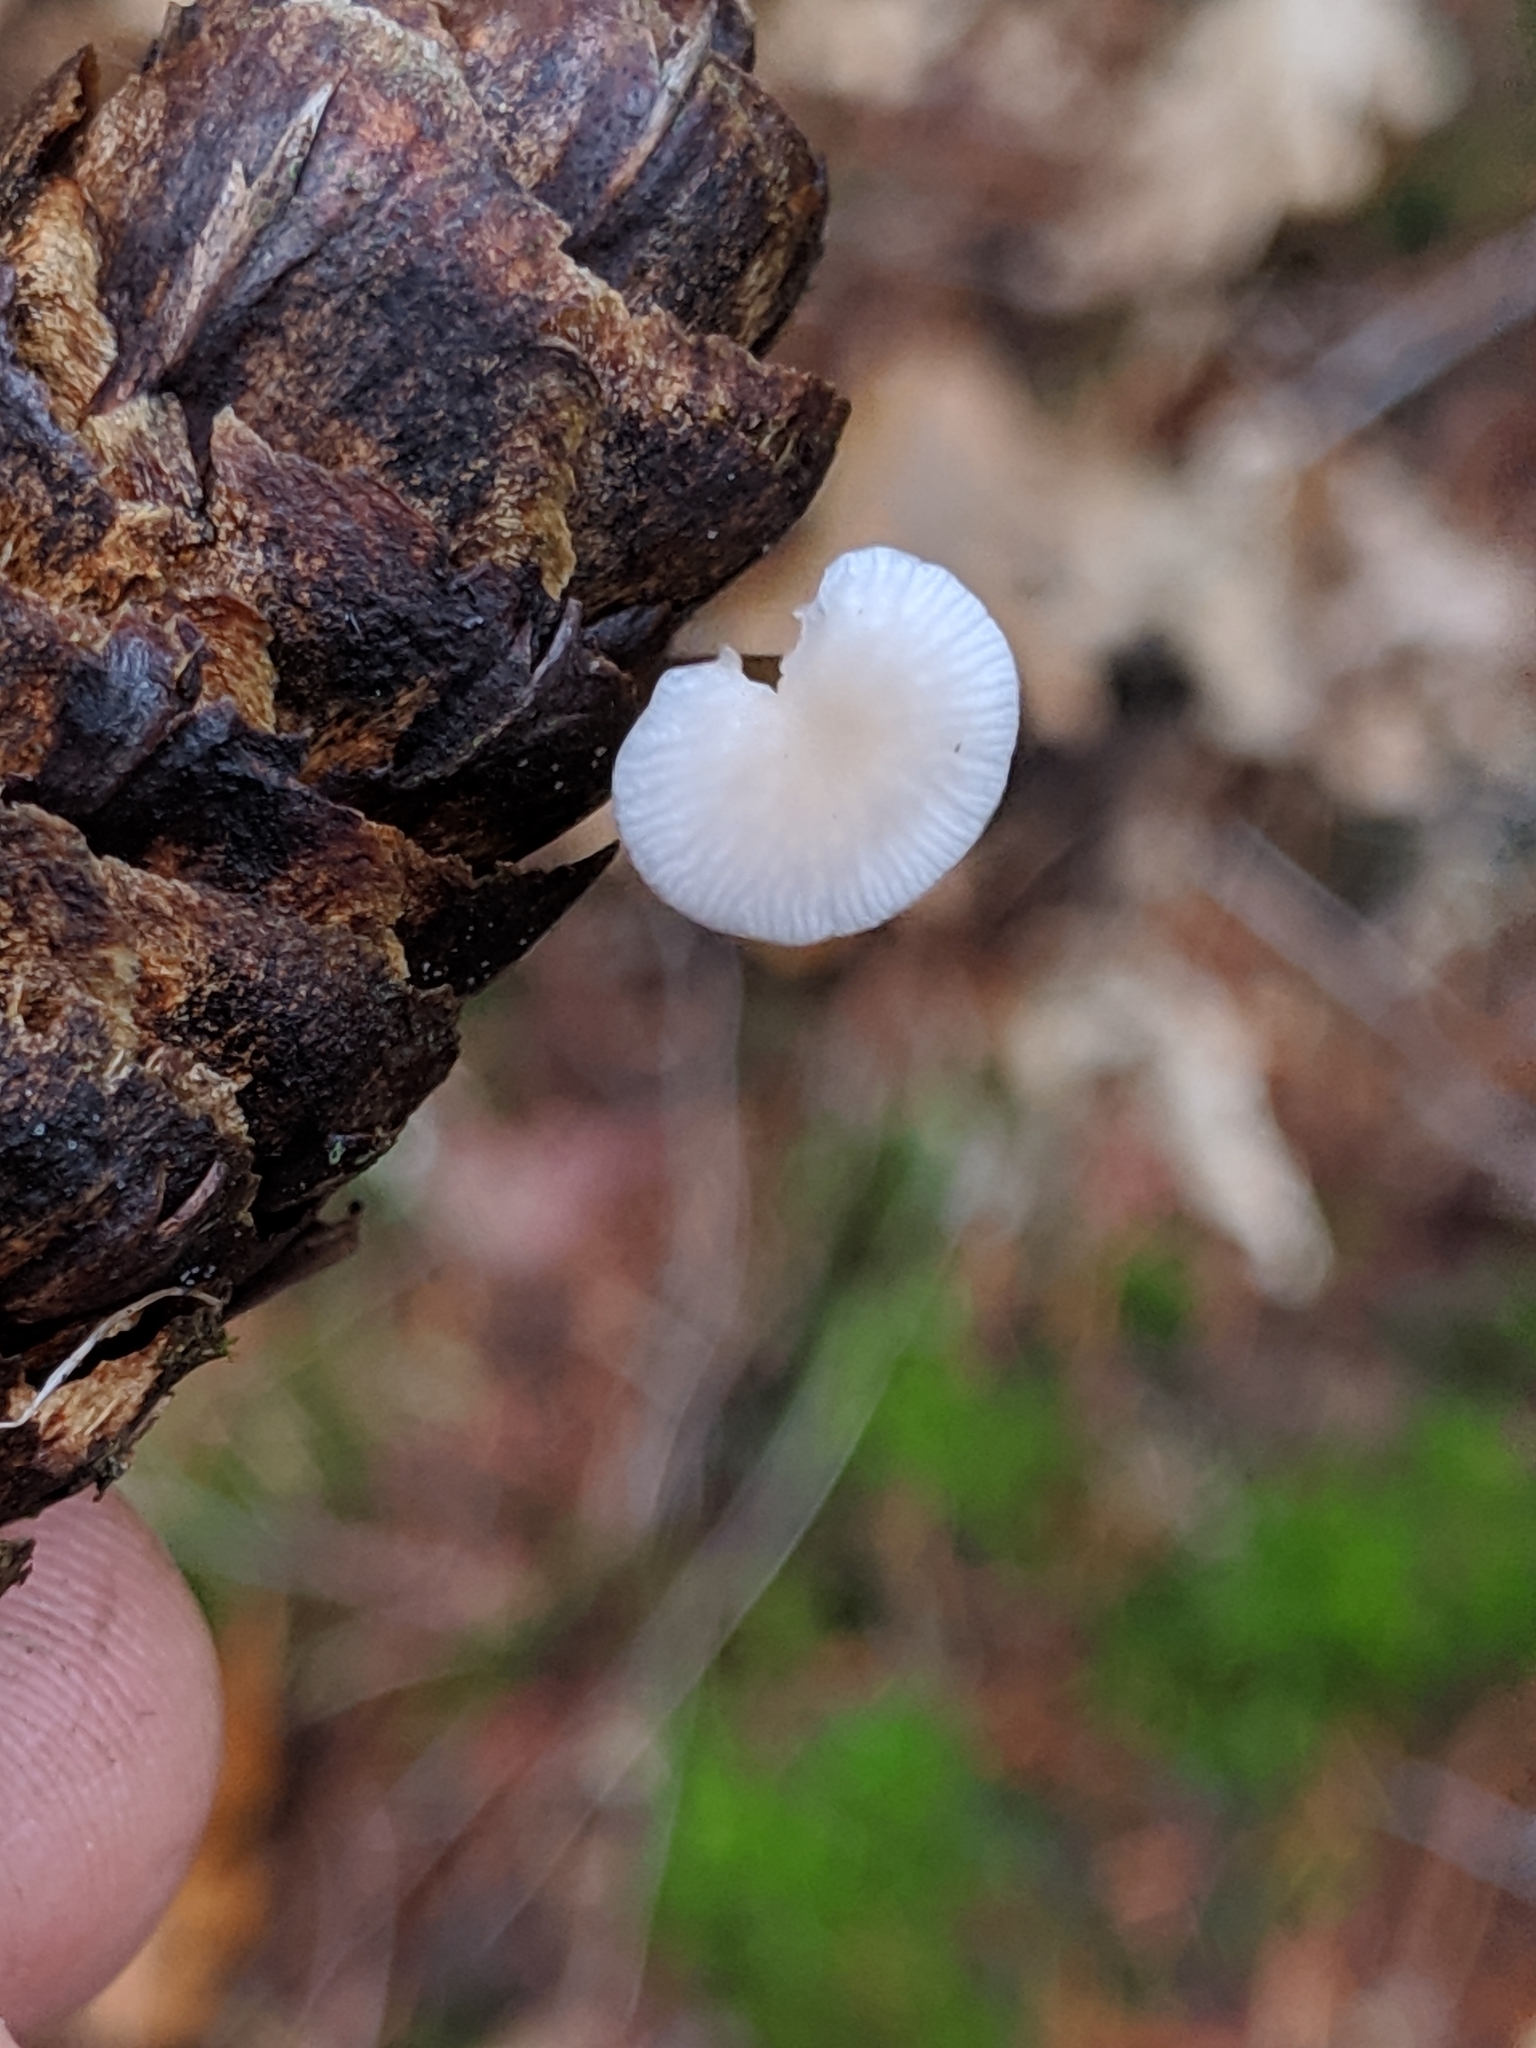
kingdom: Fungi
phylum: Basidiomycota
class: Agaricomycetes
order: Agaricales
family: Physalacriaceae
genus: Strobilurus
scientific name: Strobilurus trullisatus
